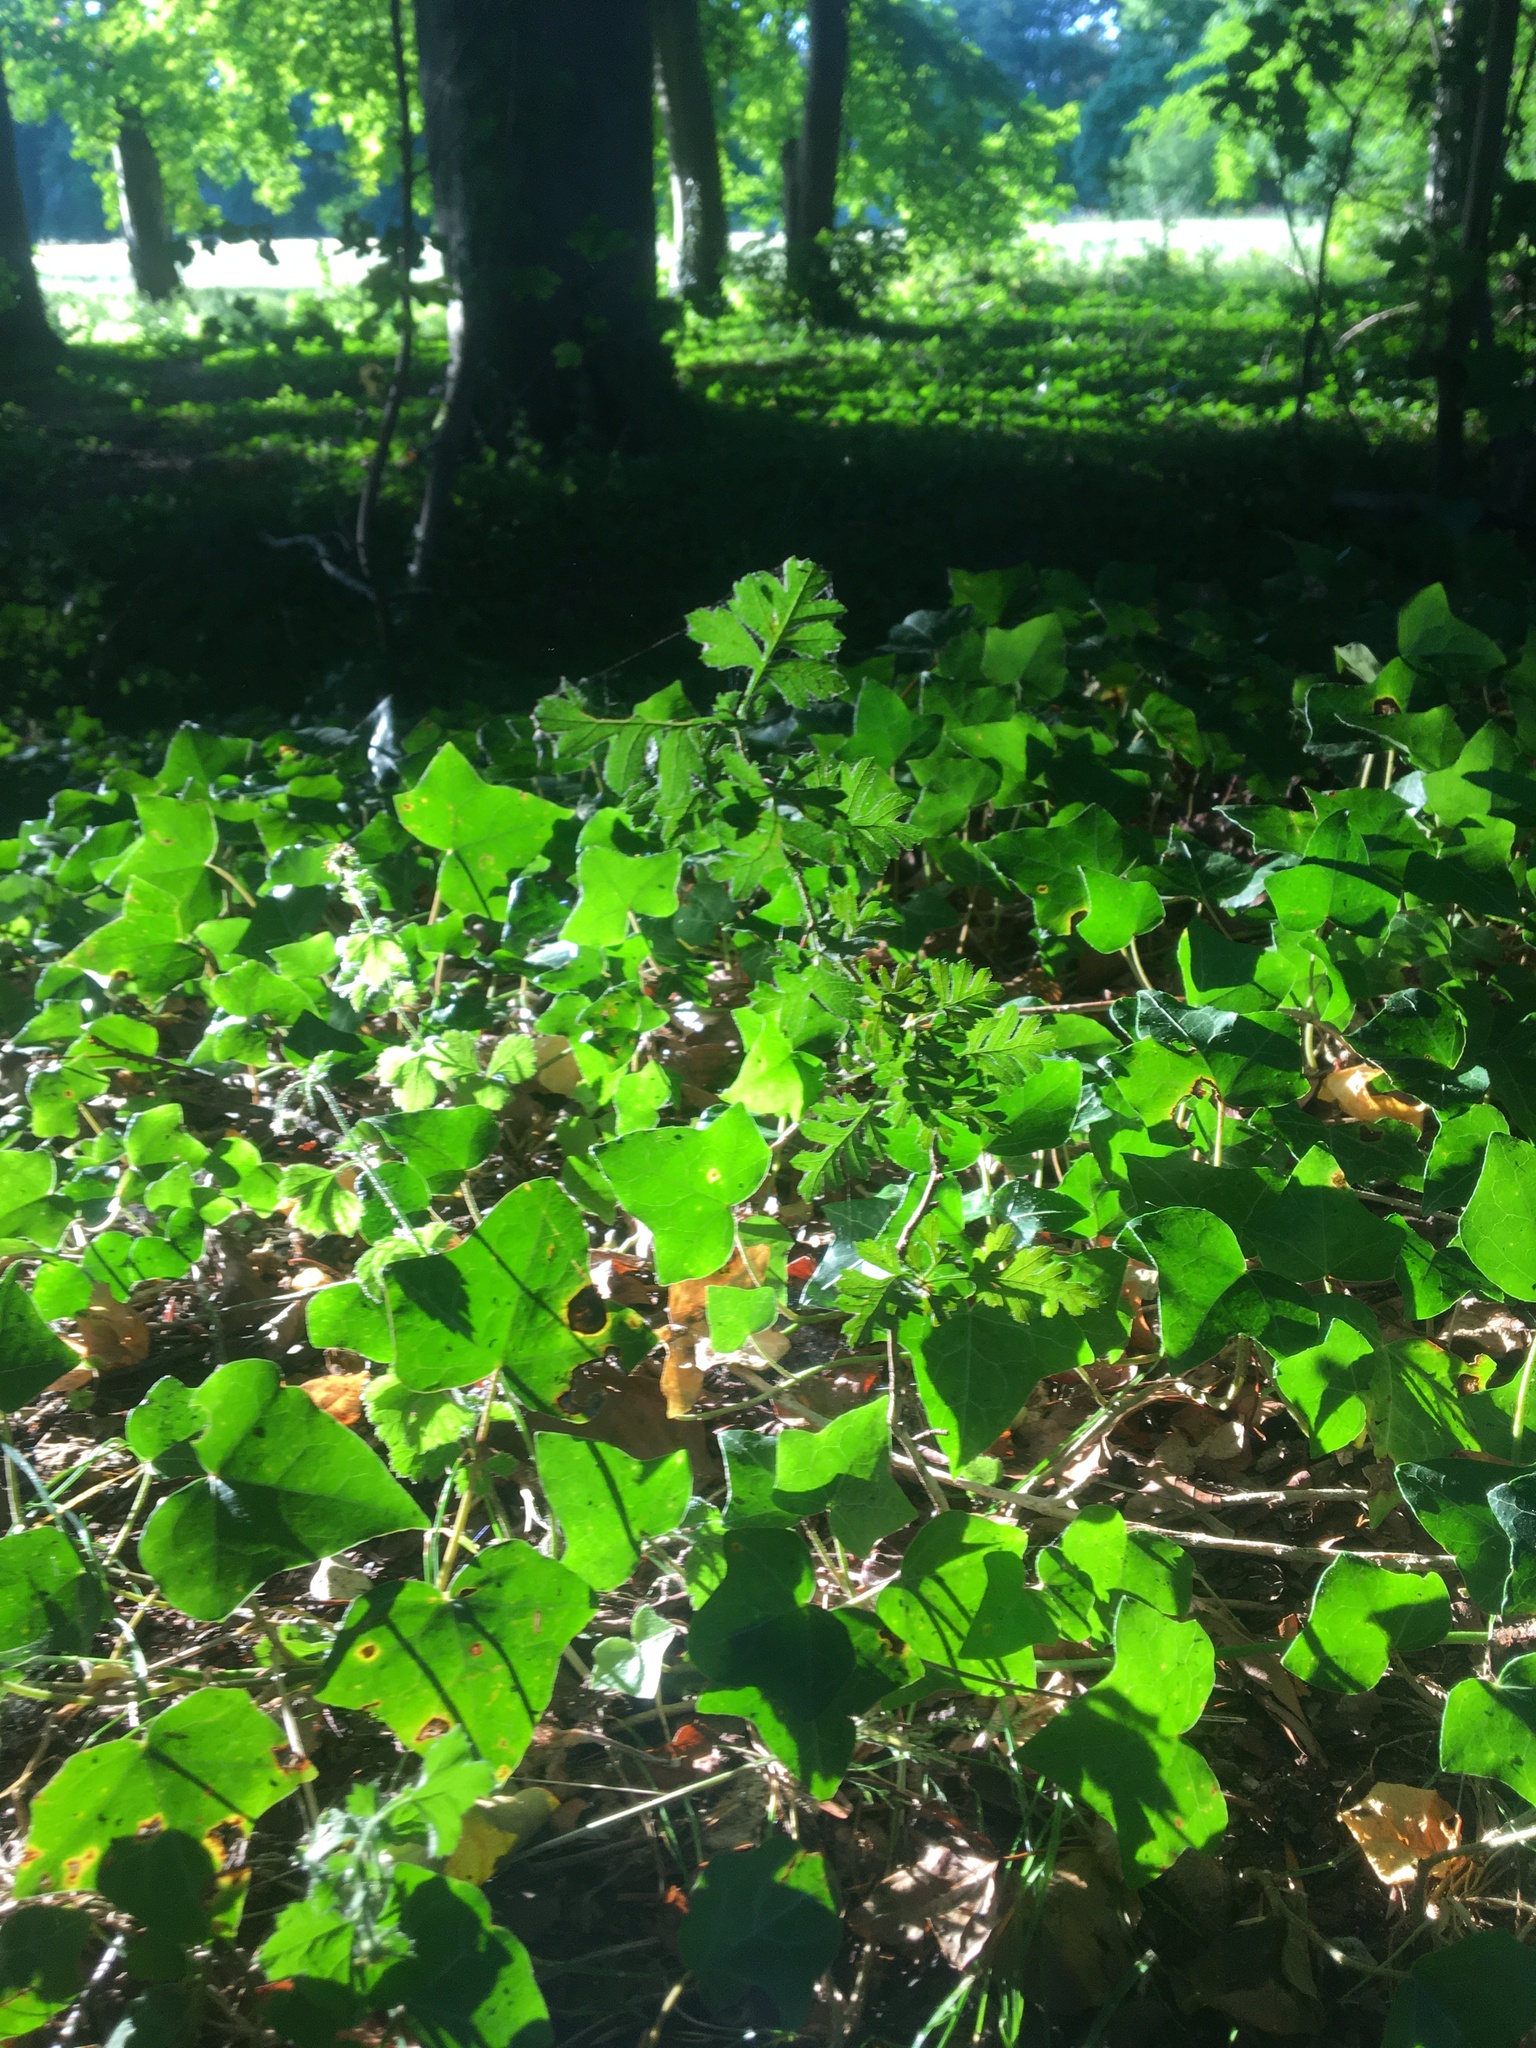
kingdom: Plantae
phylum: Tracheophyta
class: Magnoliopsida
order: Apiales
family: Araliaceae
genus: Hedera
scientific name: Hedera helix
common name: Ivy
